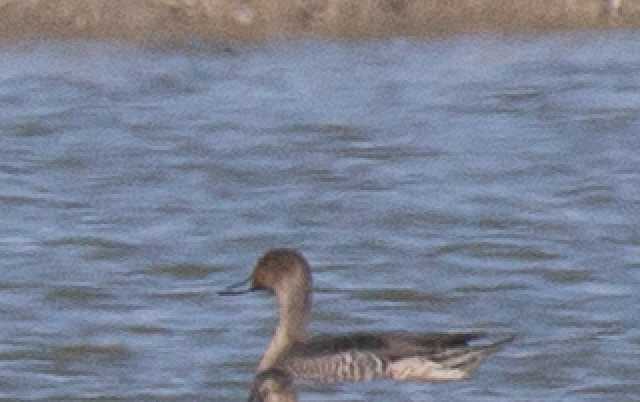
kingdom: Animalia
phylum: Chordata
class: Aves
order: Anseriformes
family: Anatidae
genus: Anas
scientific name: Anas acuta
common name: Northern pintail
